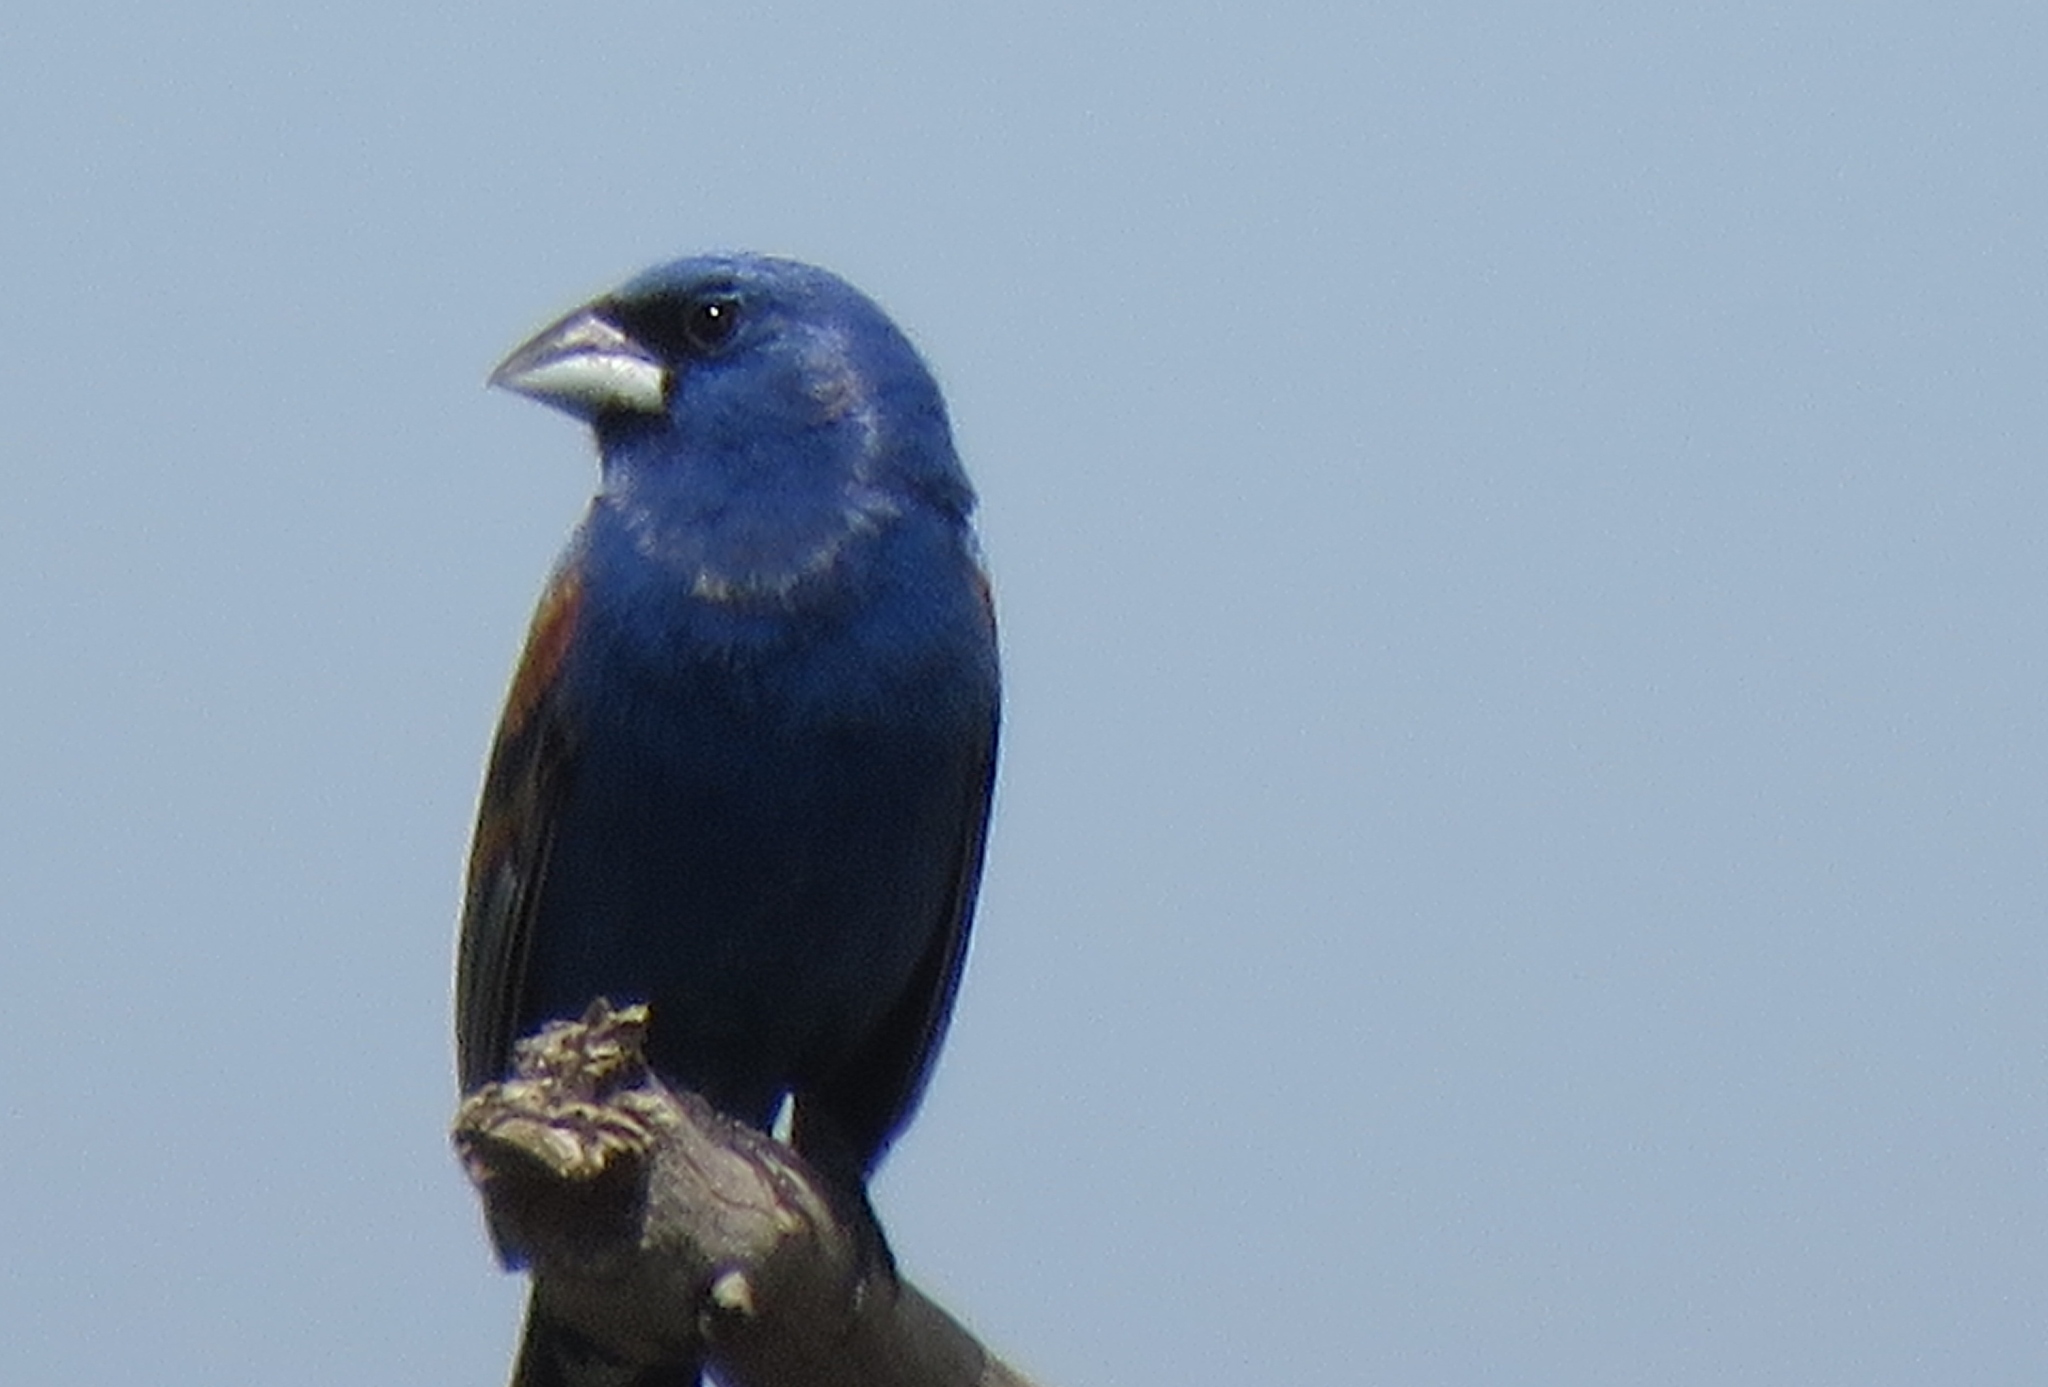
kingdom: Animalia
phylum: Chordata
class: Aves
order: Passeriformes
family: Cardinalidae
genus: Passerina
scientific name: Passerina caerulea
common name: Blue grosbeak
